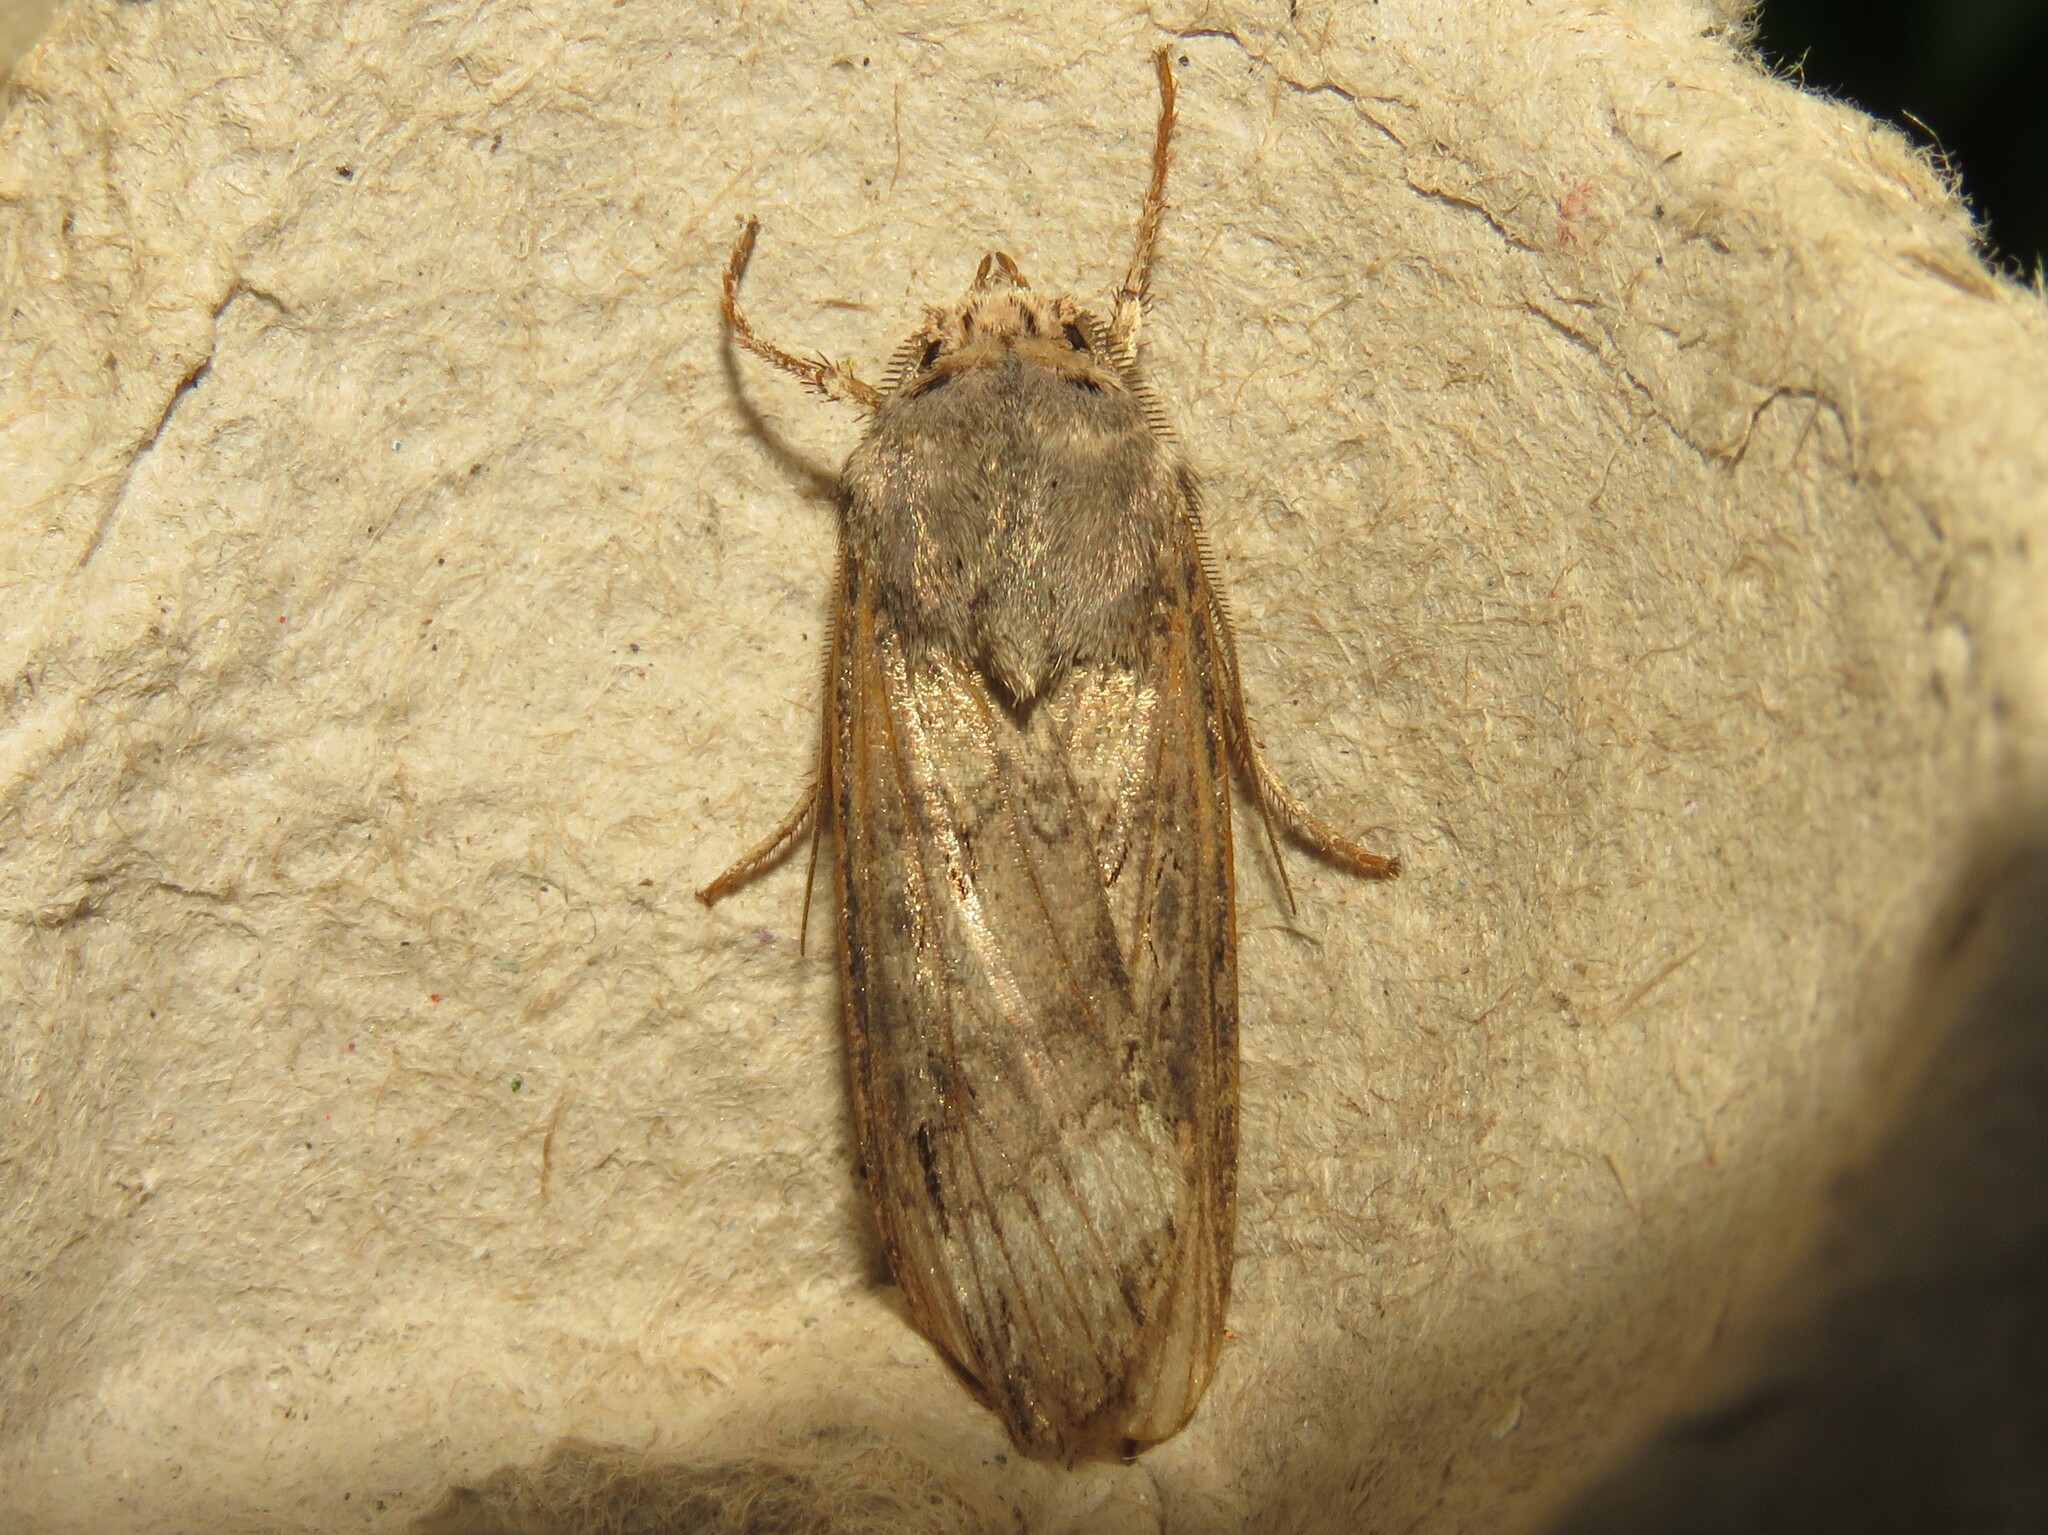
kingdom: Animalia
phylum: Arthropoda
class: Insecta
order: Lepidoptera
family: Noctuidae
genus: Agrotis
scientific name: Agrotis ipsilon
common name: Dark sword-grass
